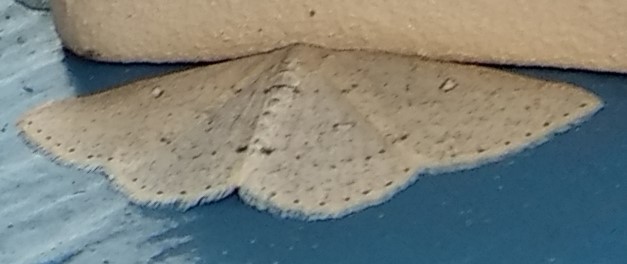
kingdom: Animalia
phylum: Arthropoda
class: Insecta
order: Lepidoptera
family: Geometridae
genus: Cyclophora
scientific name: Cyclophora pendulinaria
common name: Sweet fern geometer
